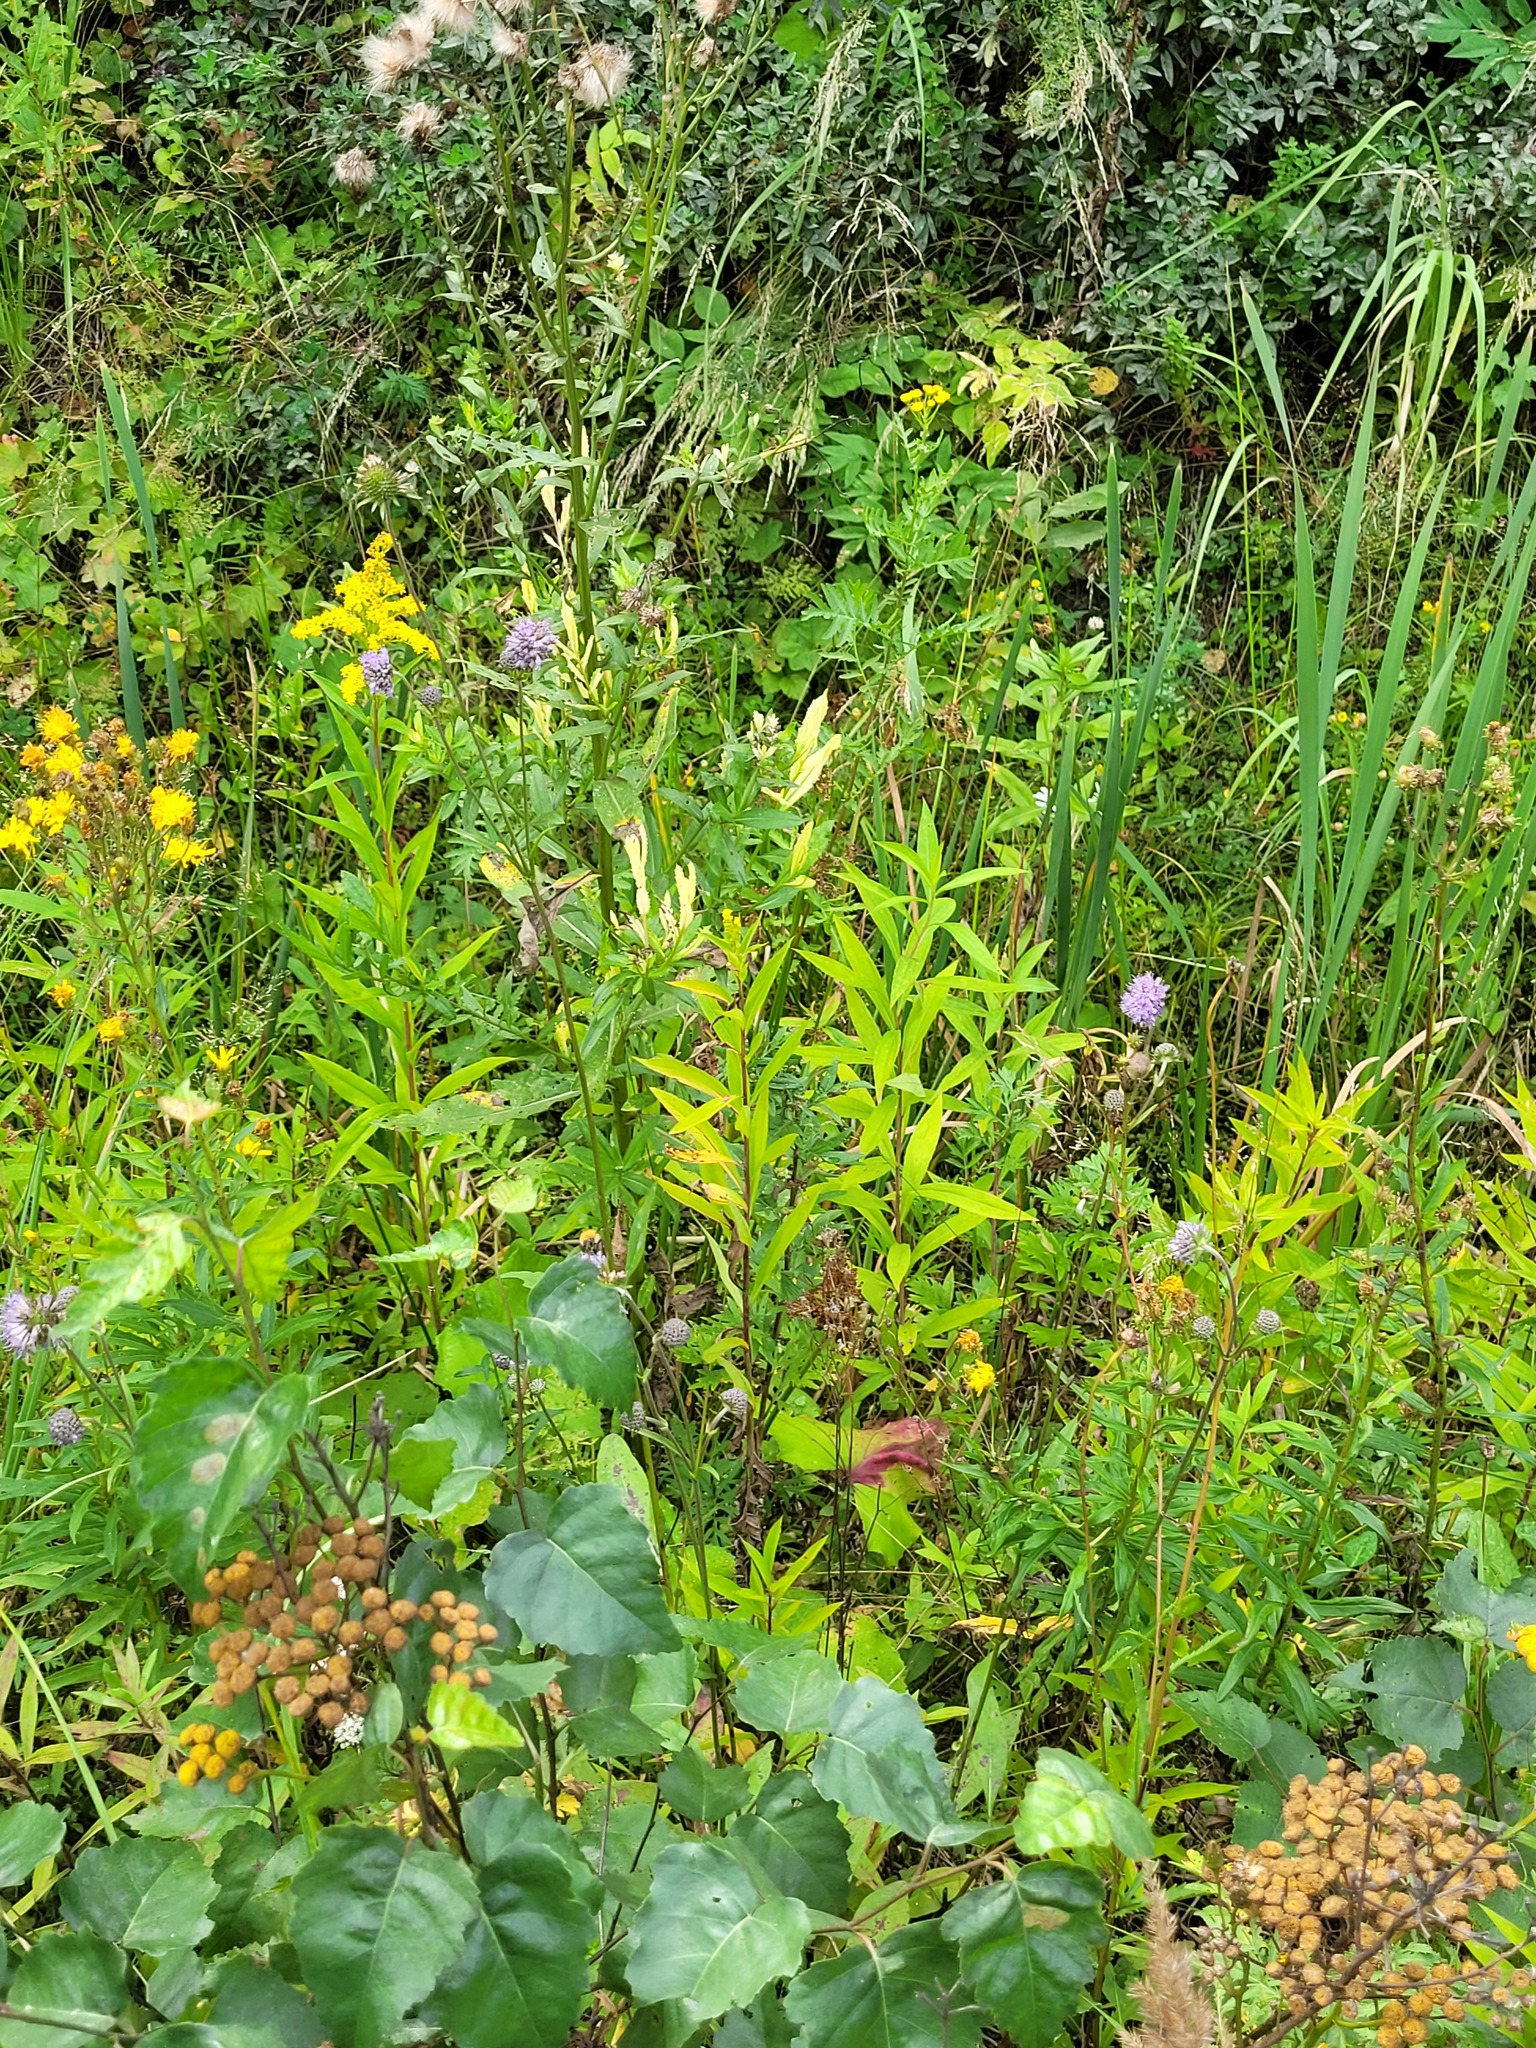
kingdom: Plantae
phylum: Tracheophyta
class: Magnoliopsida
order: Dipsacales
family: Caprifoliaceae
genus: Succisa
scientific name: Succisa pratensis
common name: Devil's-bit
